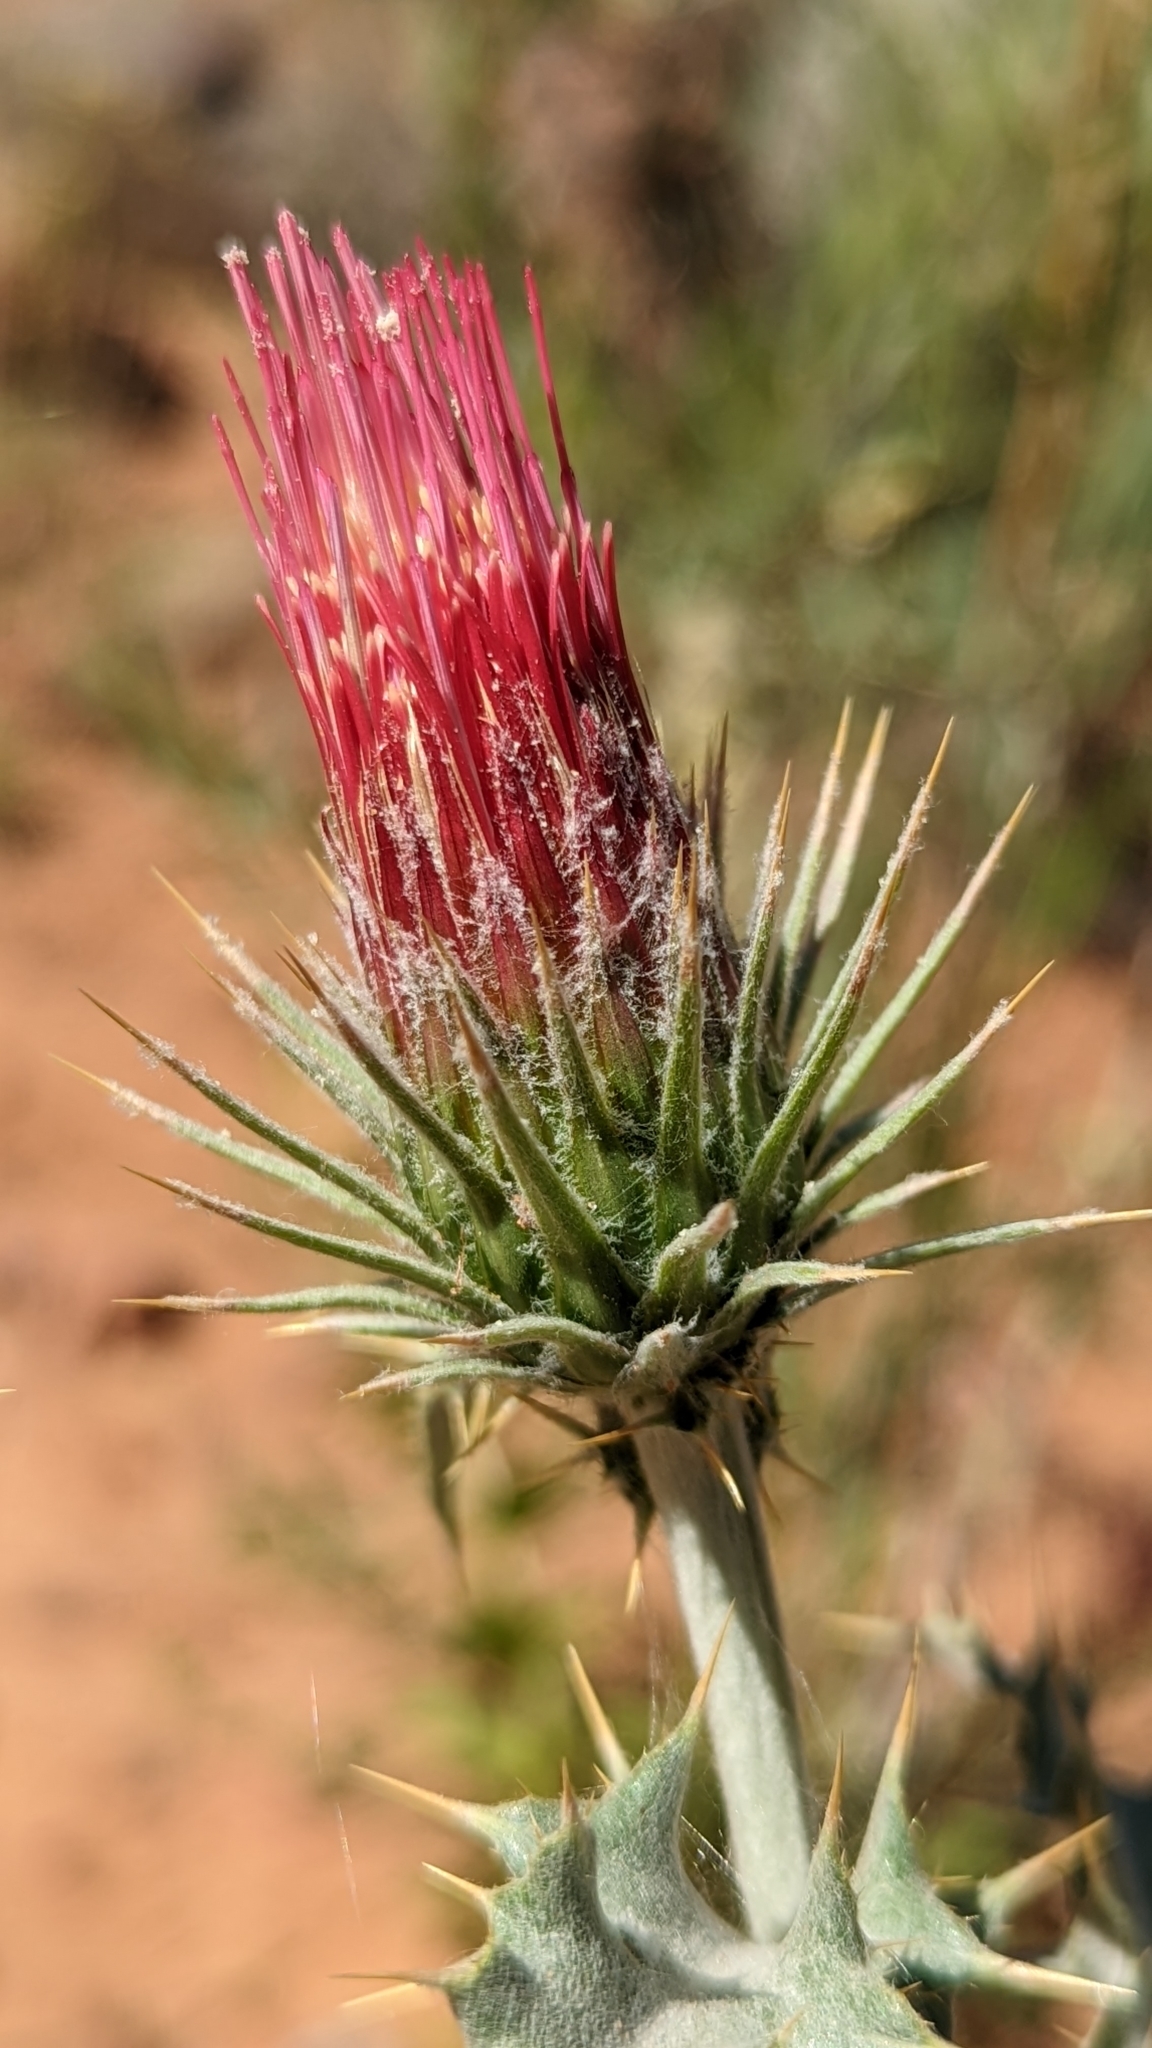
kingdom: Plantae
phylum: Tracheophyta
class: Magnoliopsida
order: Asterales
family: Asteraceae
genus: Cirsium
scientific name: Cirsium arizonicum
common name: Arizona thistle
